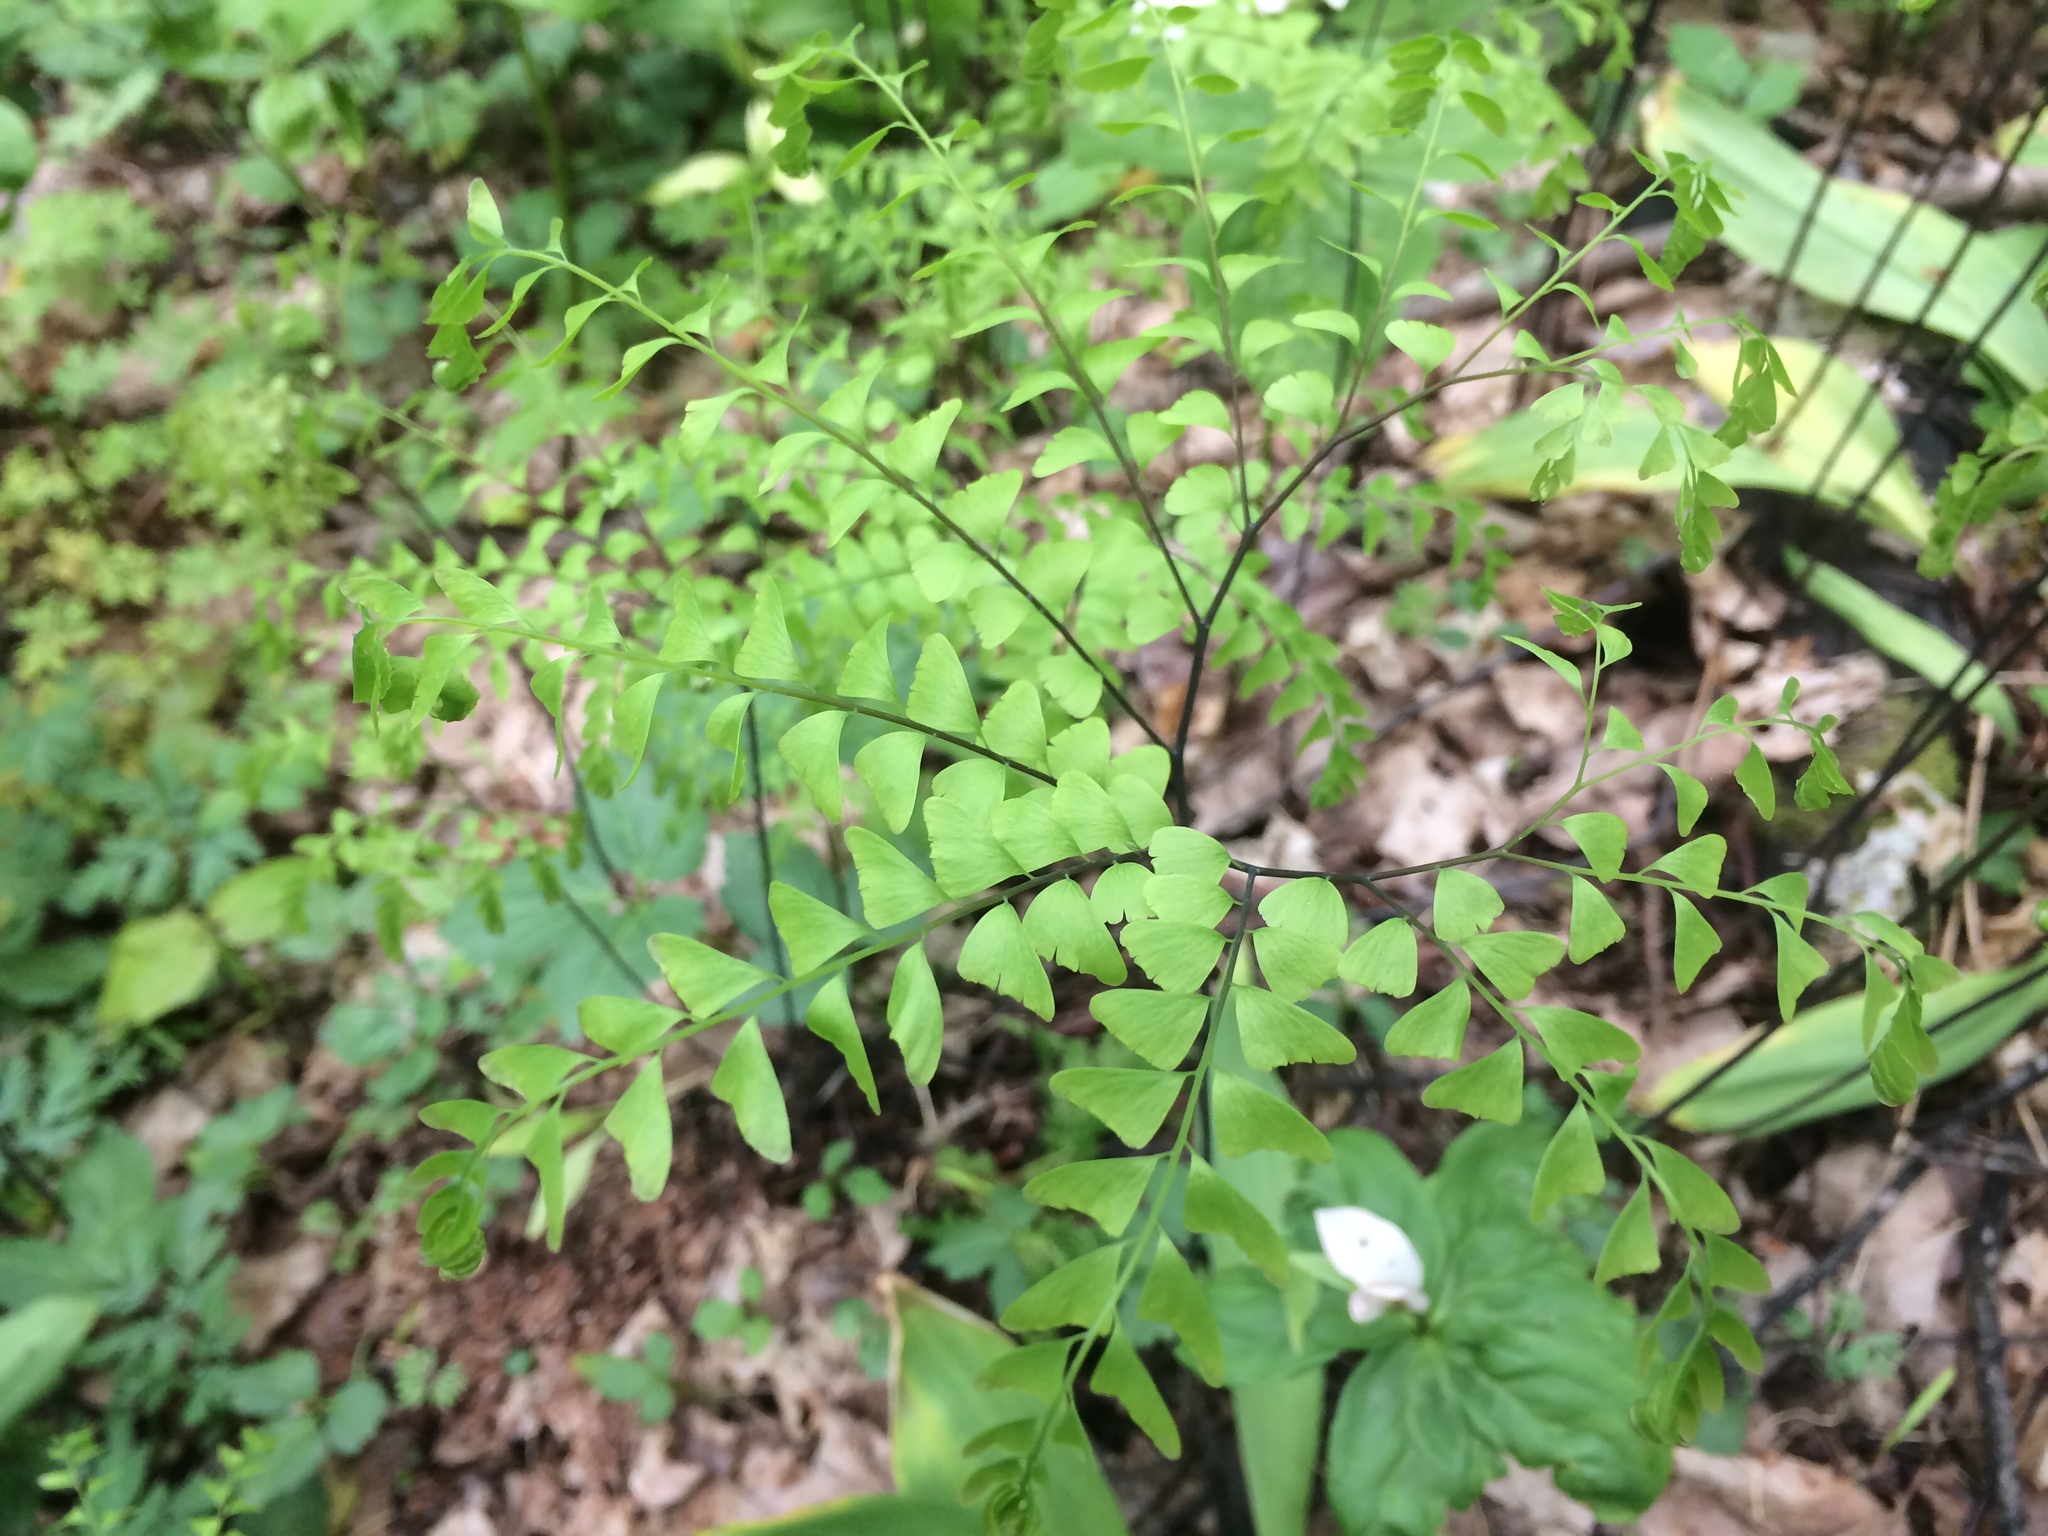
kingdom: Plantae
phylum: Tracheophyta
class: Polypodiopsida
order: Polypodiales
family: Pteridaceae
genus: Adiantum
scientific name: Adiantum pedatum
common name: Five-finger fern
